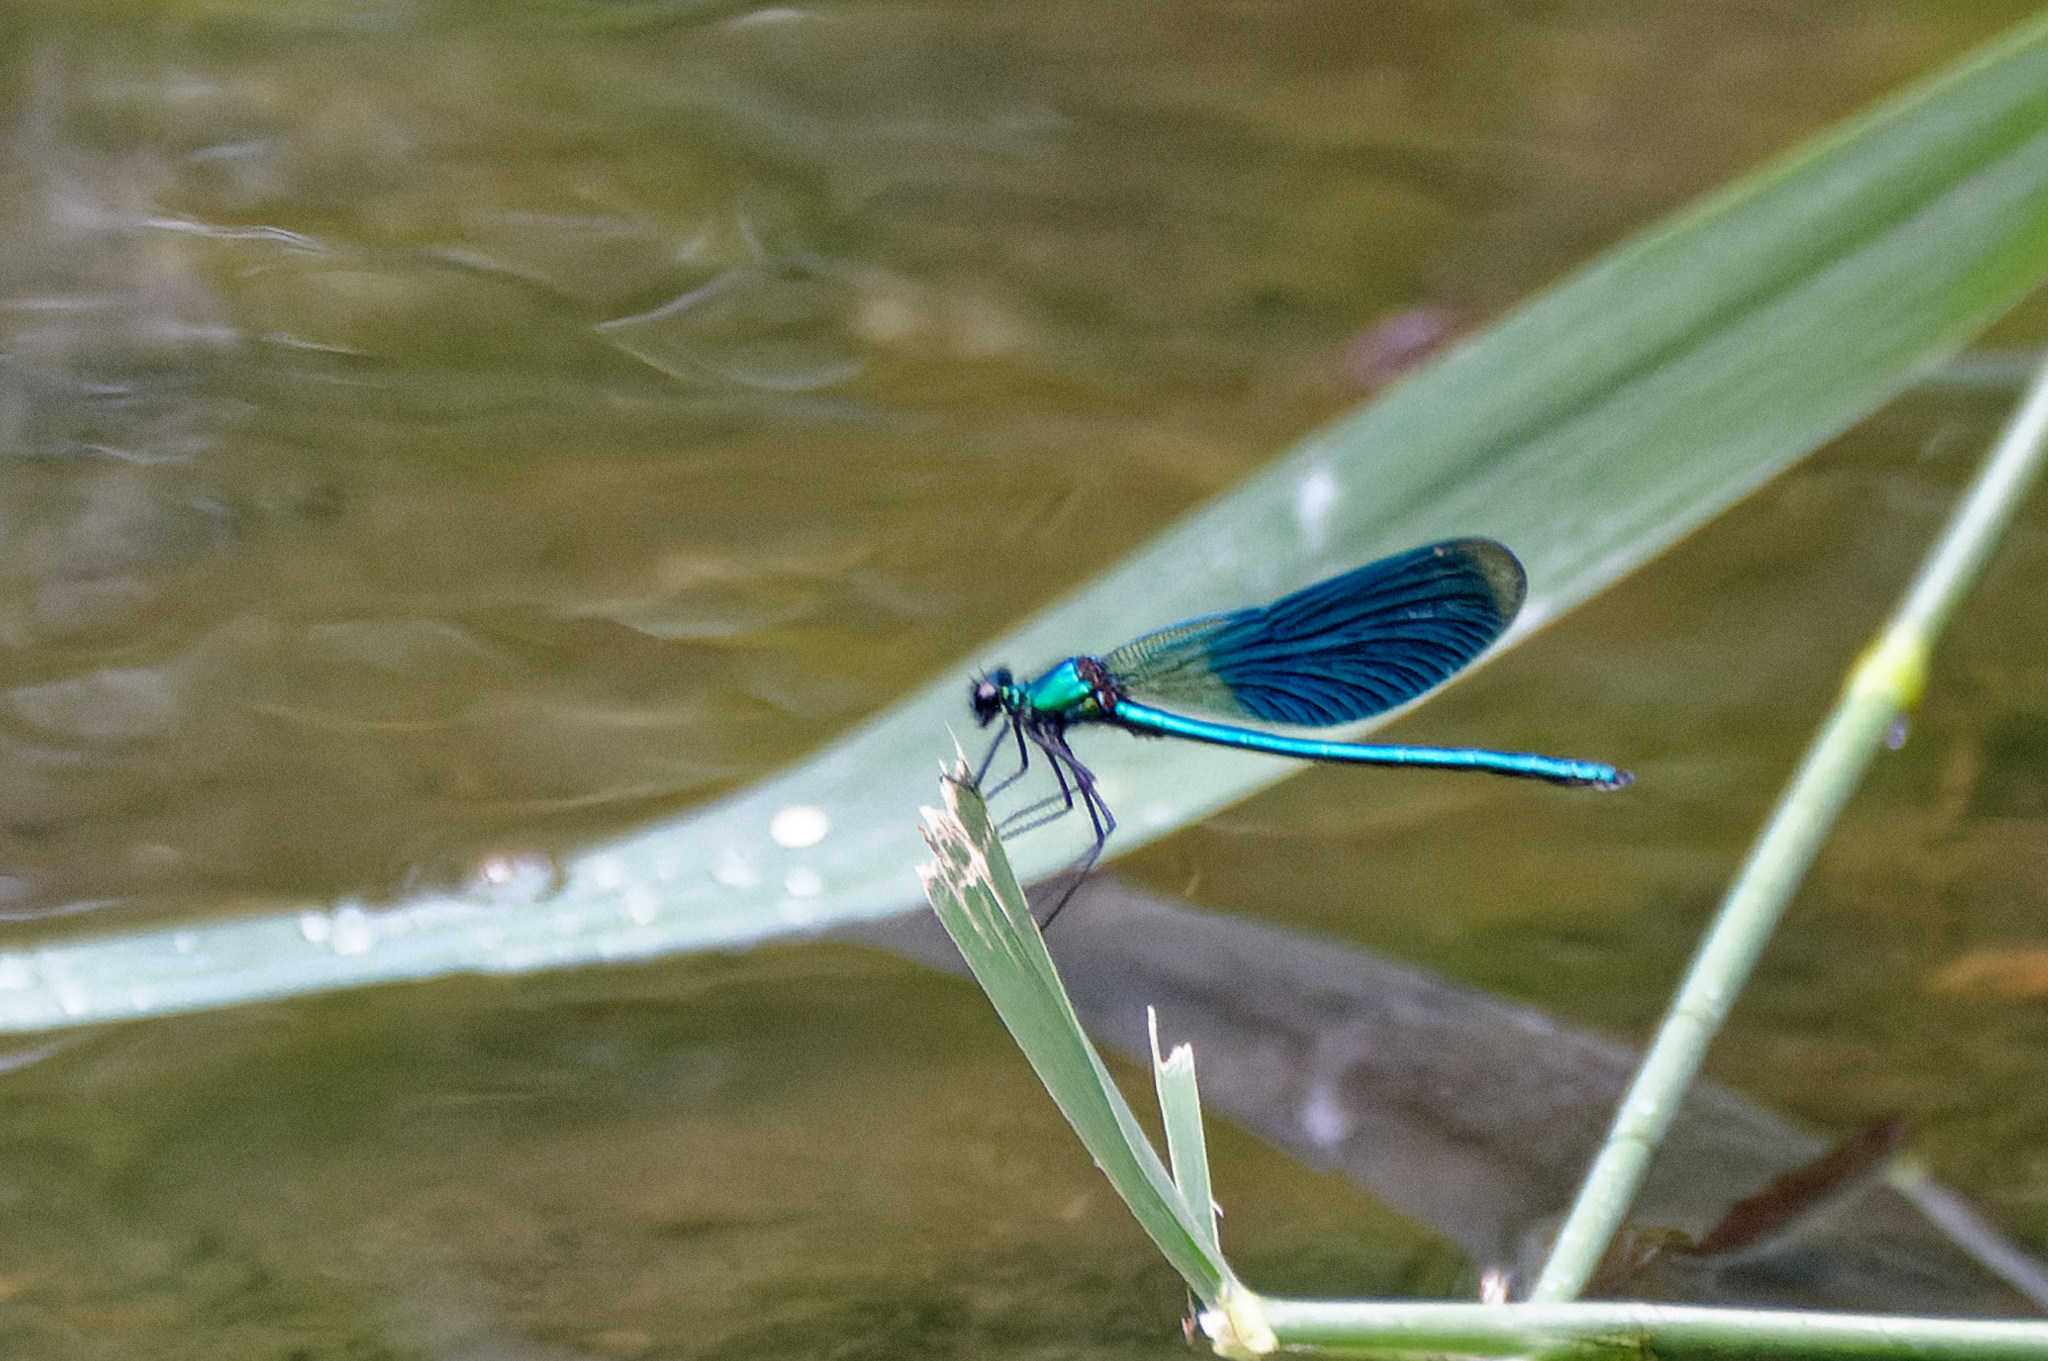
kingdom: Animalia
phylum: Arthropoda
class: Insecta
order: Odonata
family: Calopterygidae
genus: Calopteryx
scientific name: Calopteryx splendens
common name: Banded demoiselle
